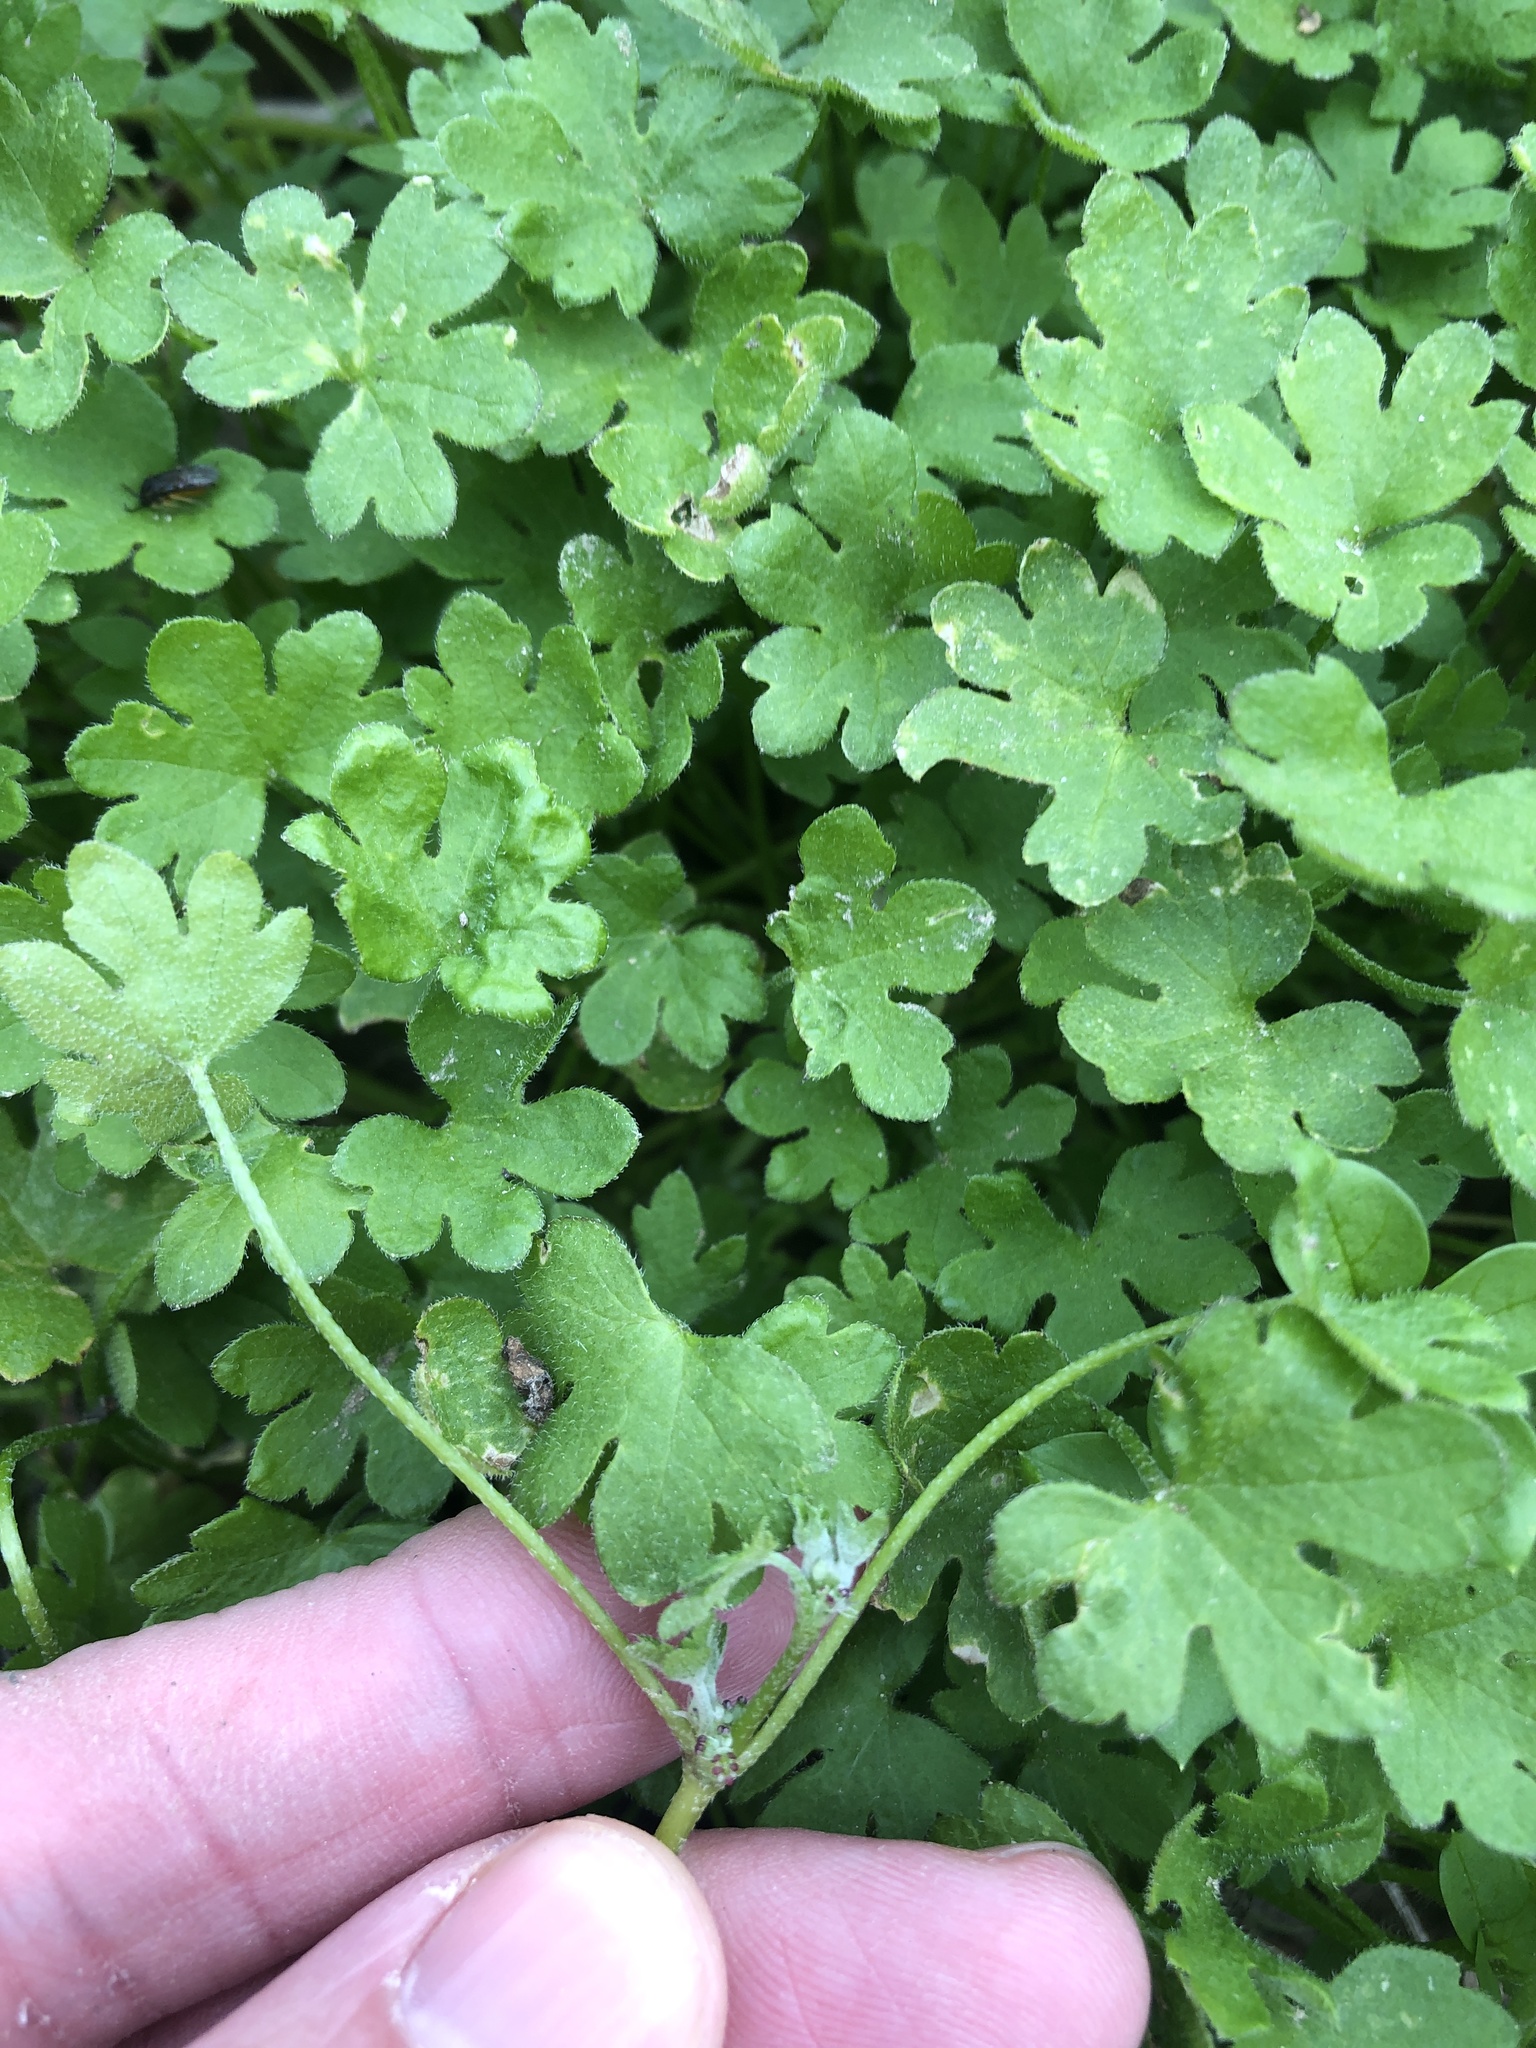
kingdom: Plantae
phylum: Tracheophyta
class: Magnoliopsida
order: Apiales
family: Apiaceae
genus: Bowlesia
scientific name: Bowlesia incana
